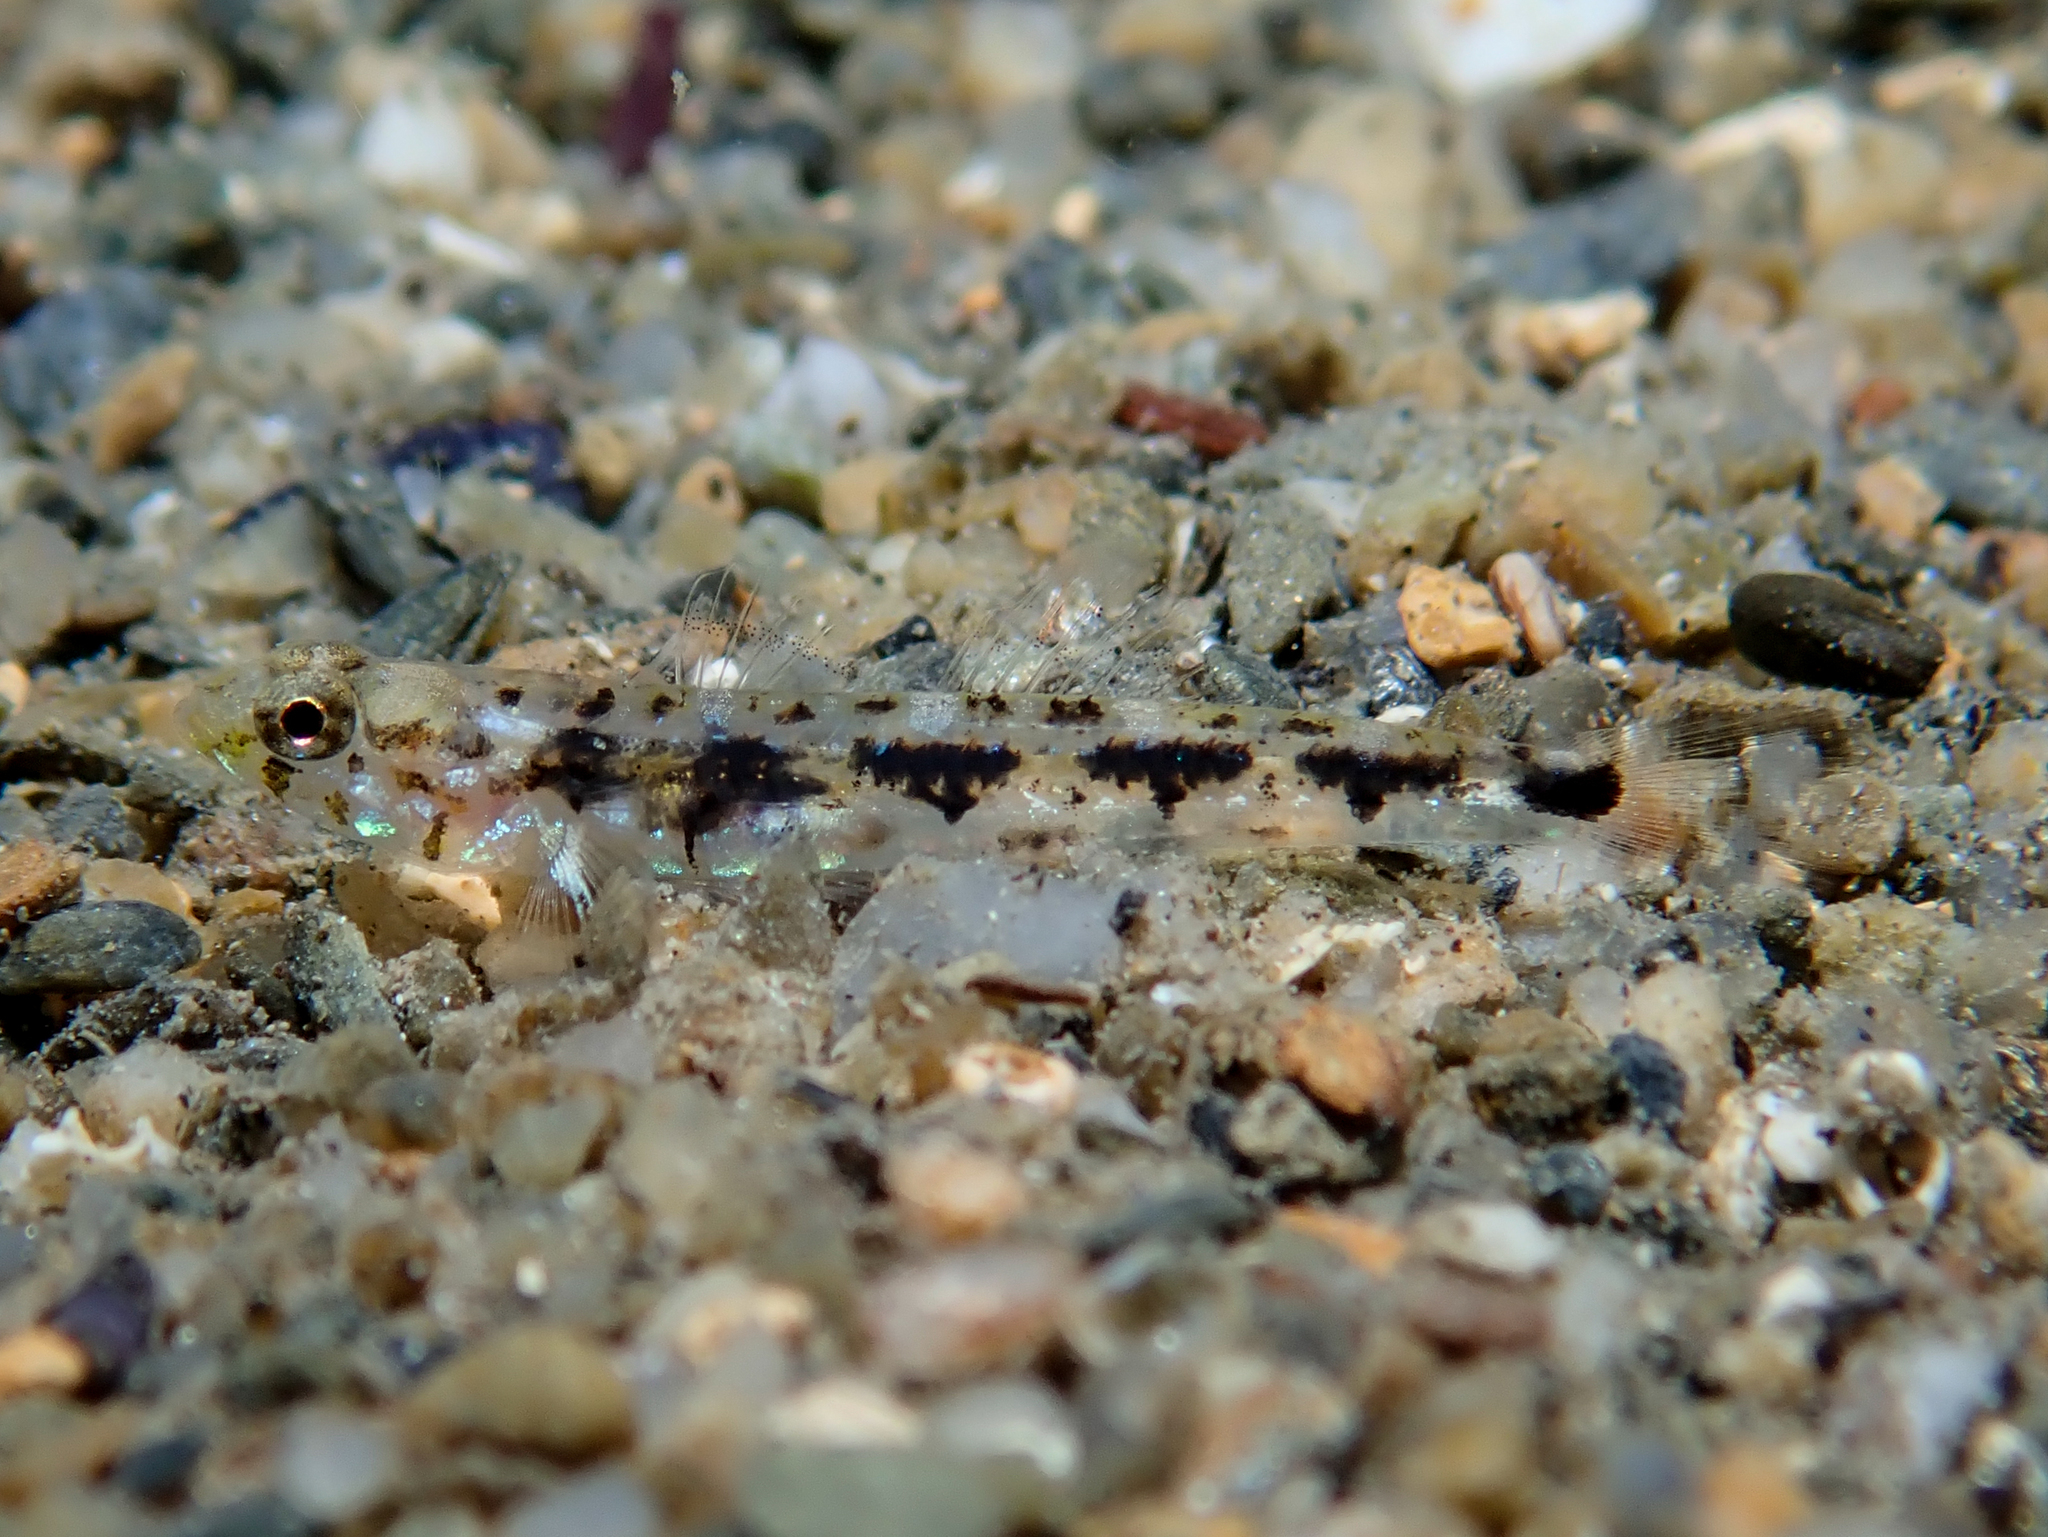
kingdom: Animalia
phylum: Chordata
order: Perciformes
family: Gobiidae
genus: Pomatoschistus
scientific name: Pomatoschistus bathi
